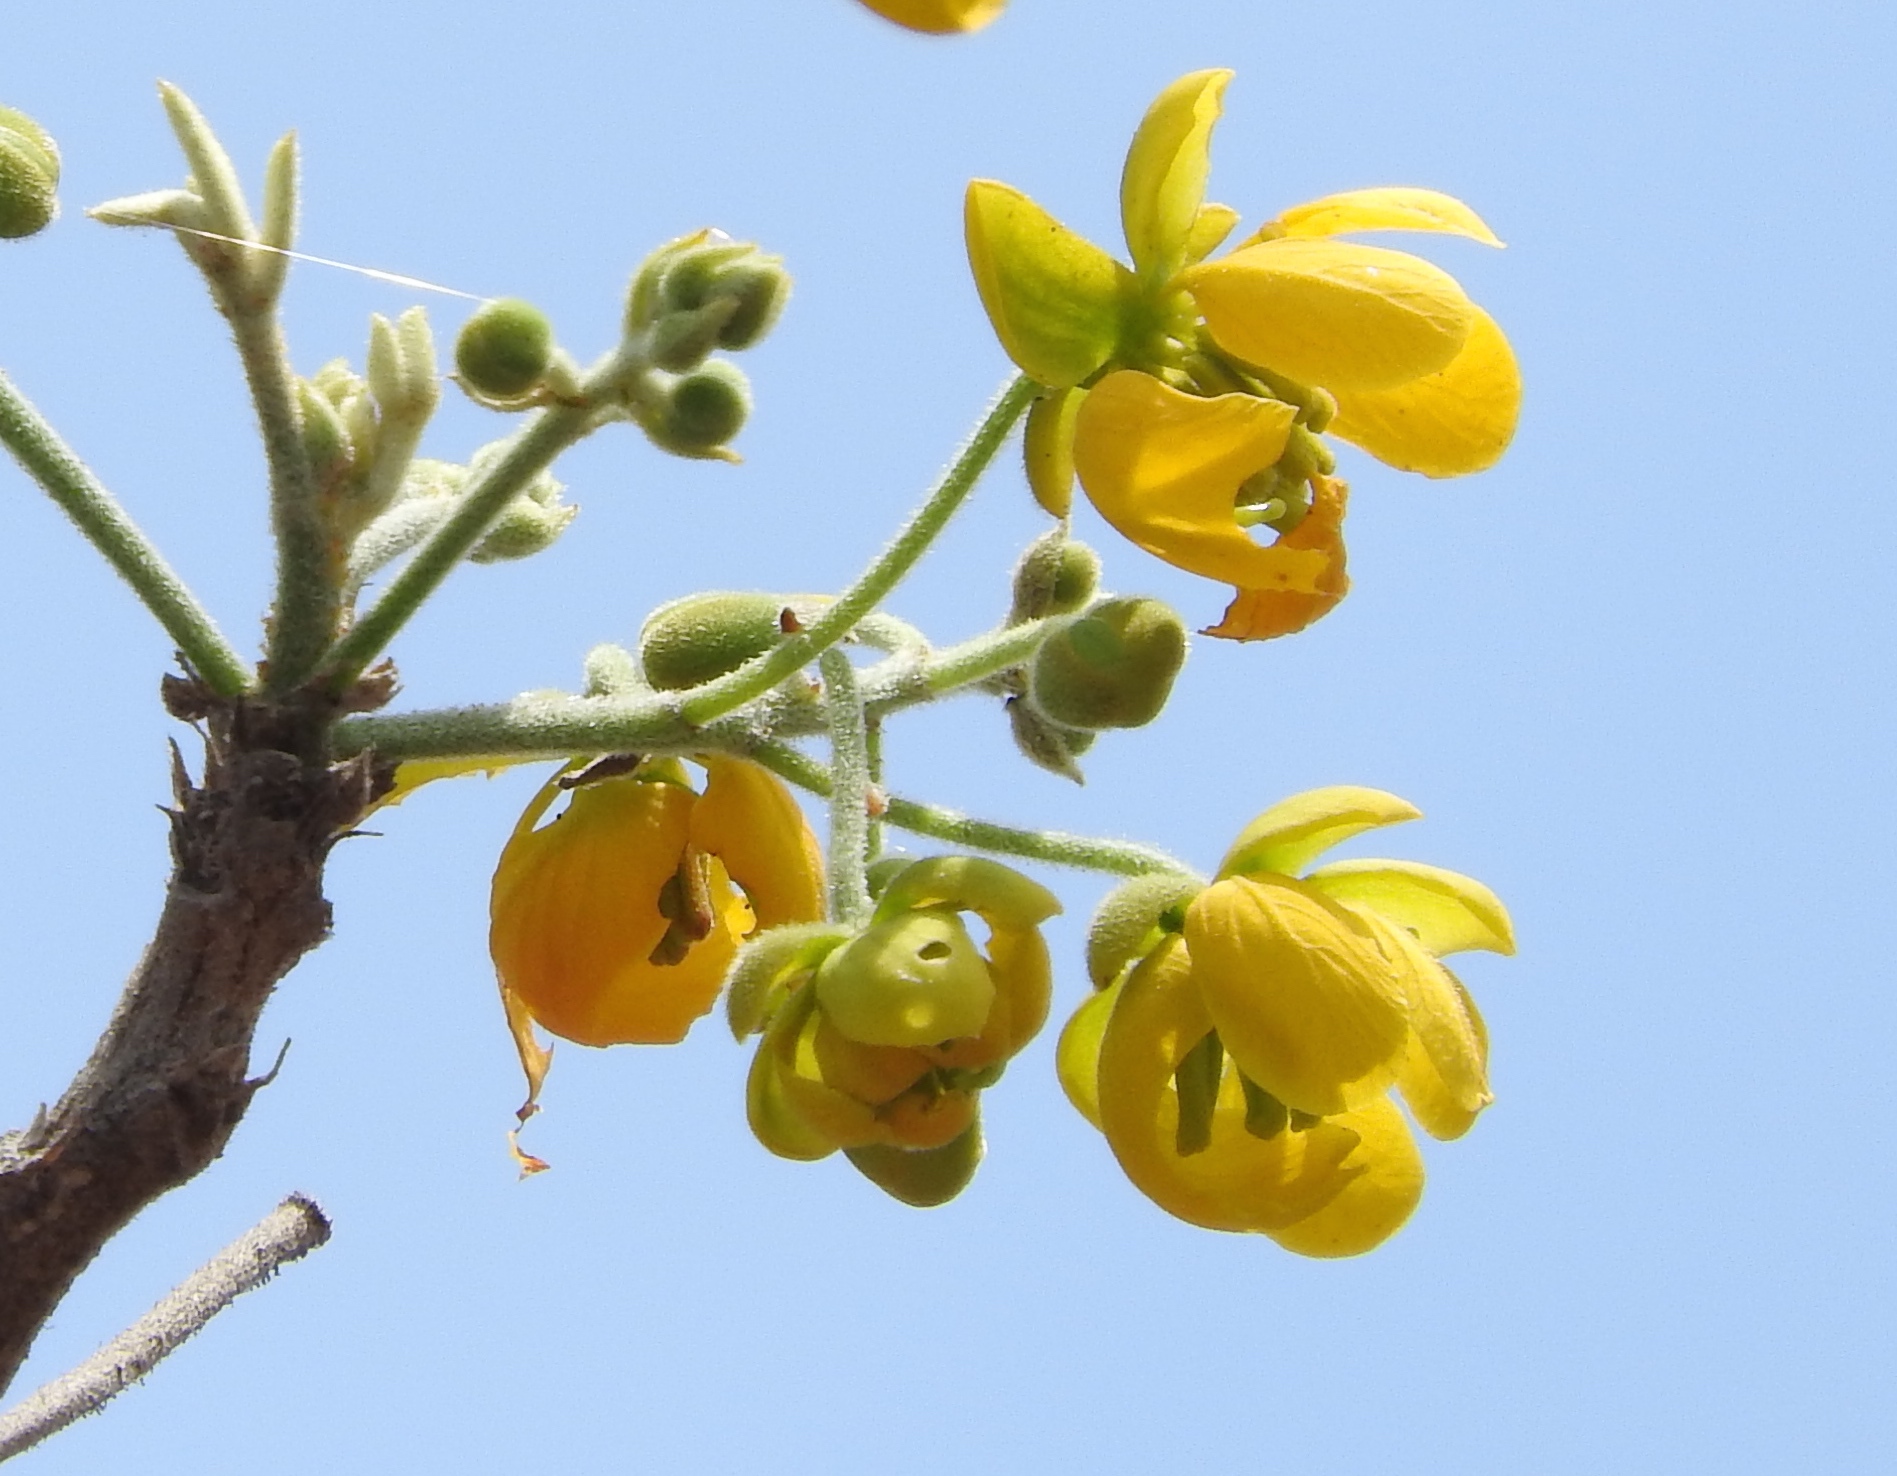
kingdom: Plantae
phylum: Tracheophyta
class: Magnoliopsida
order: Fabales
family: Fabaceae
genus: Senna
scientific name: Senna atomaria
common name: Flor de san jose
